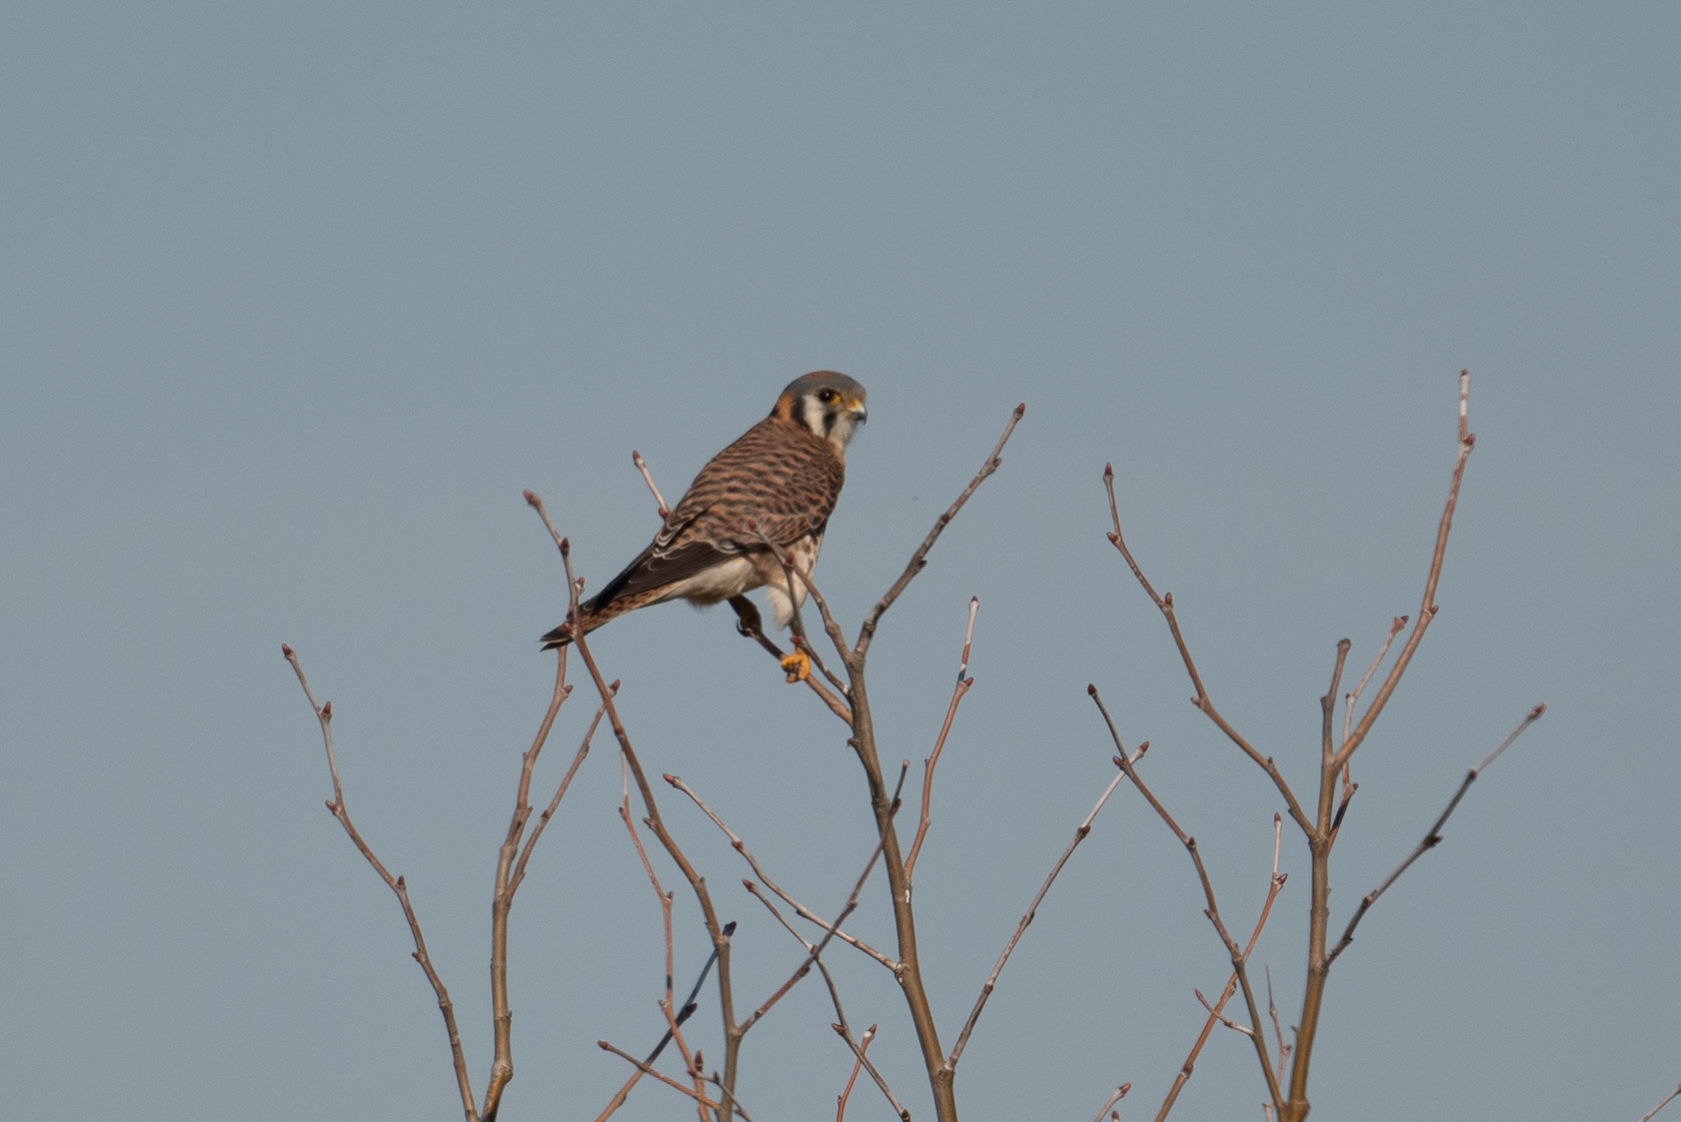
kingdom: Animalia
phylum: Chordata
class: Aves
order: Falconiformes
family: Falconidae
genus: Falco
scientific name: Falco sparverius
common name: American kestrel
